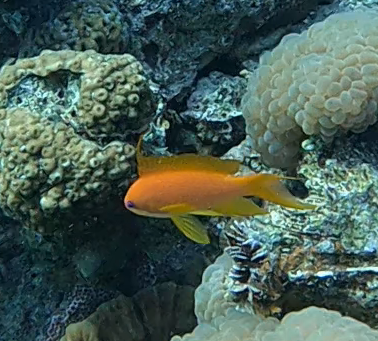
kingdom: Animalia
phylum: Chordata
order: Perciformes
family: Serranidae
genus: Pseudanthias
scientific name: Pseudanthias squamipinnis
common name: Scalefin anthias
